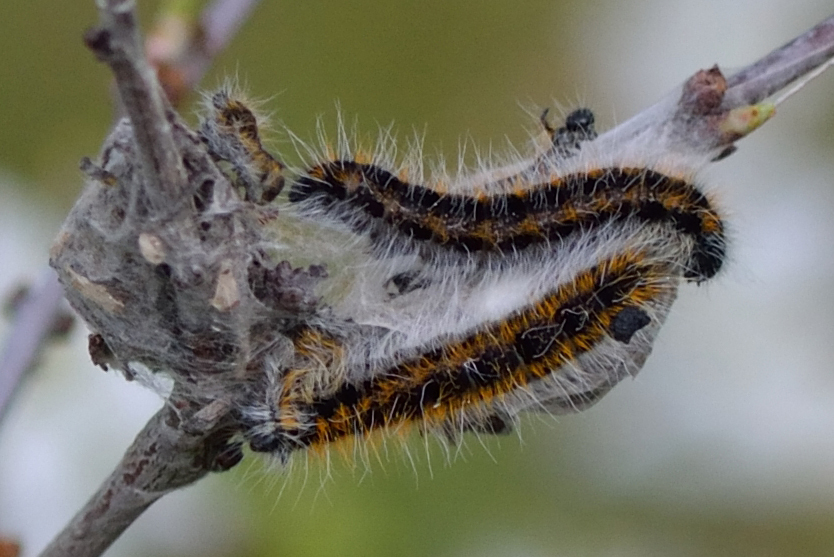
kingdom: Animalia
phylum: Arthropoda
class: Insecta
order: Lepidoptera
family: Pieridae
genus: Aporia
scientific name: Aporia crataegi
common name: Black-veined white
